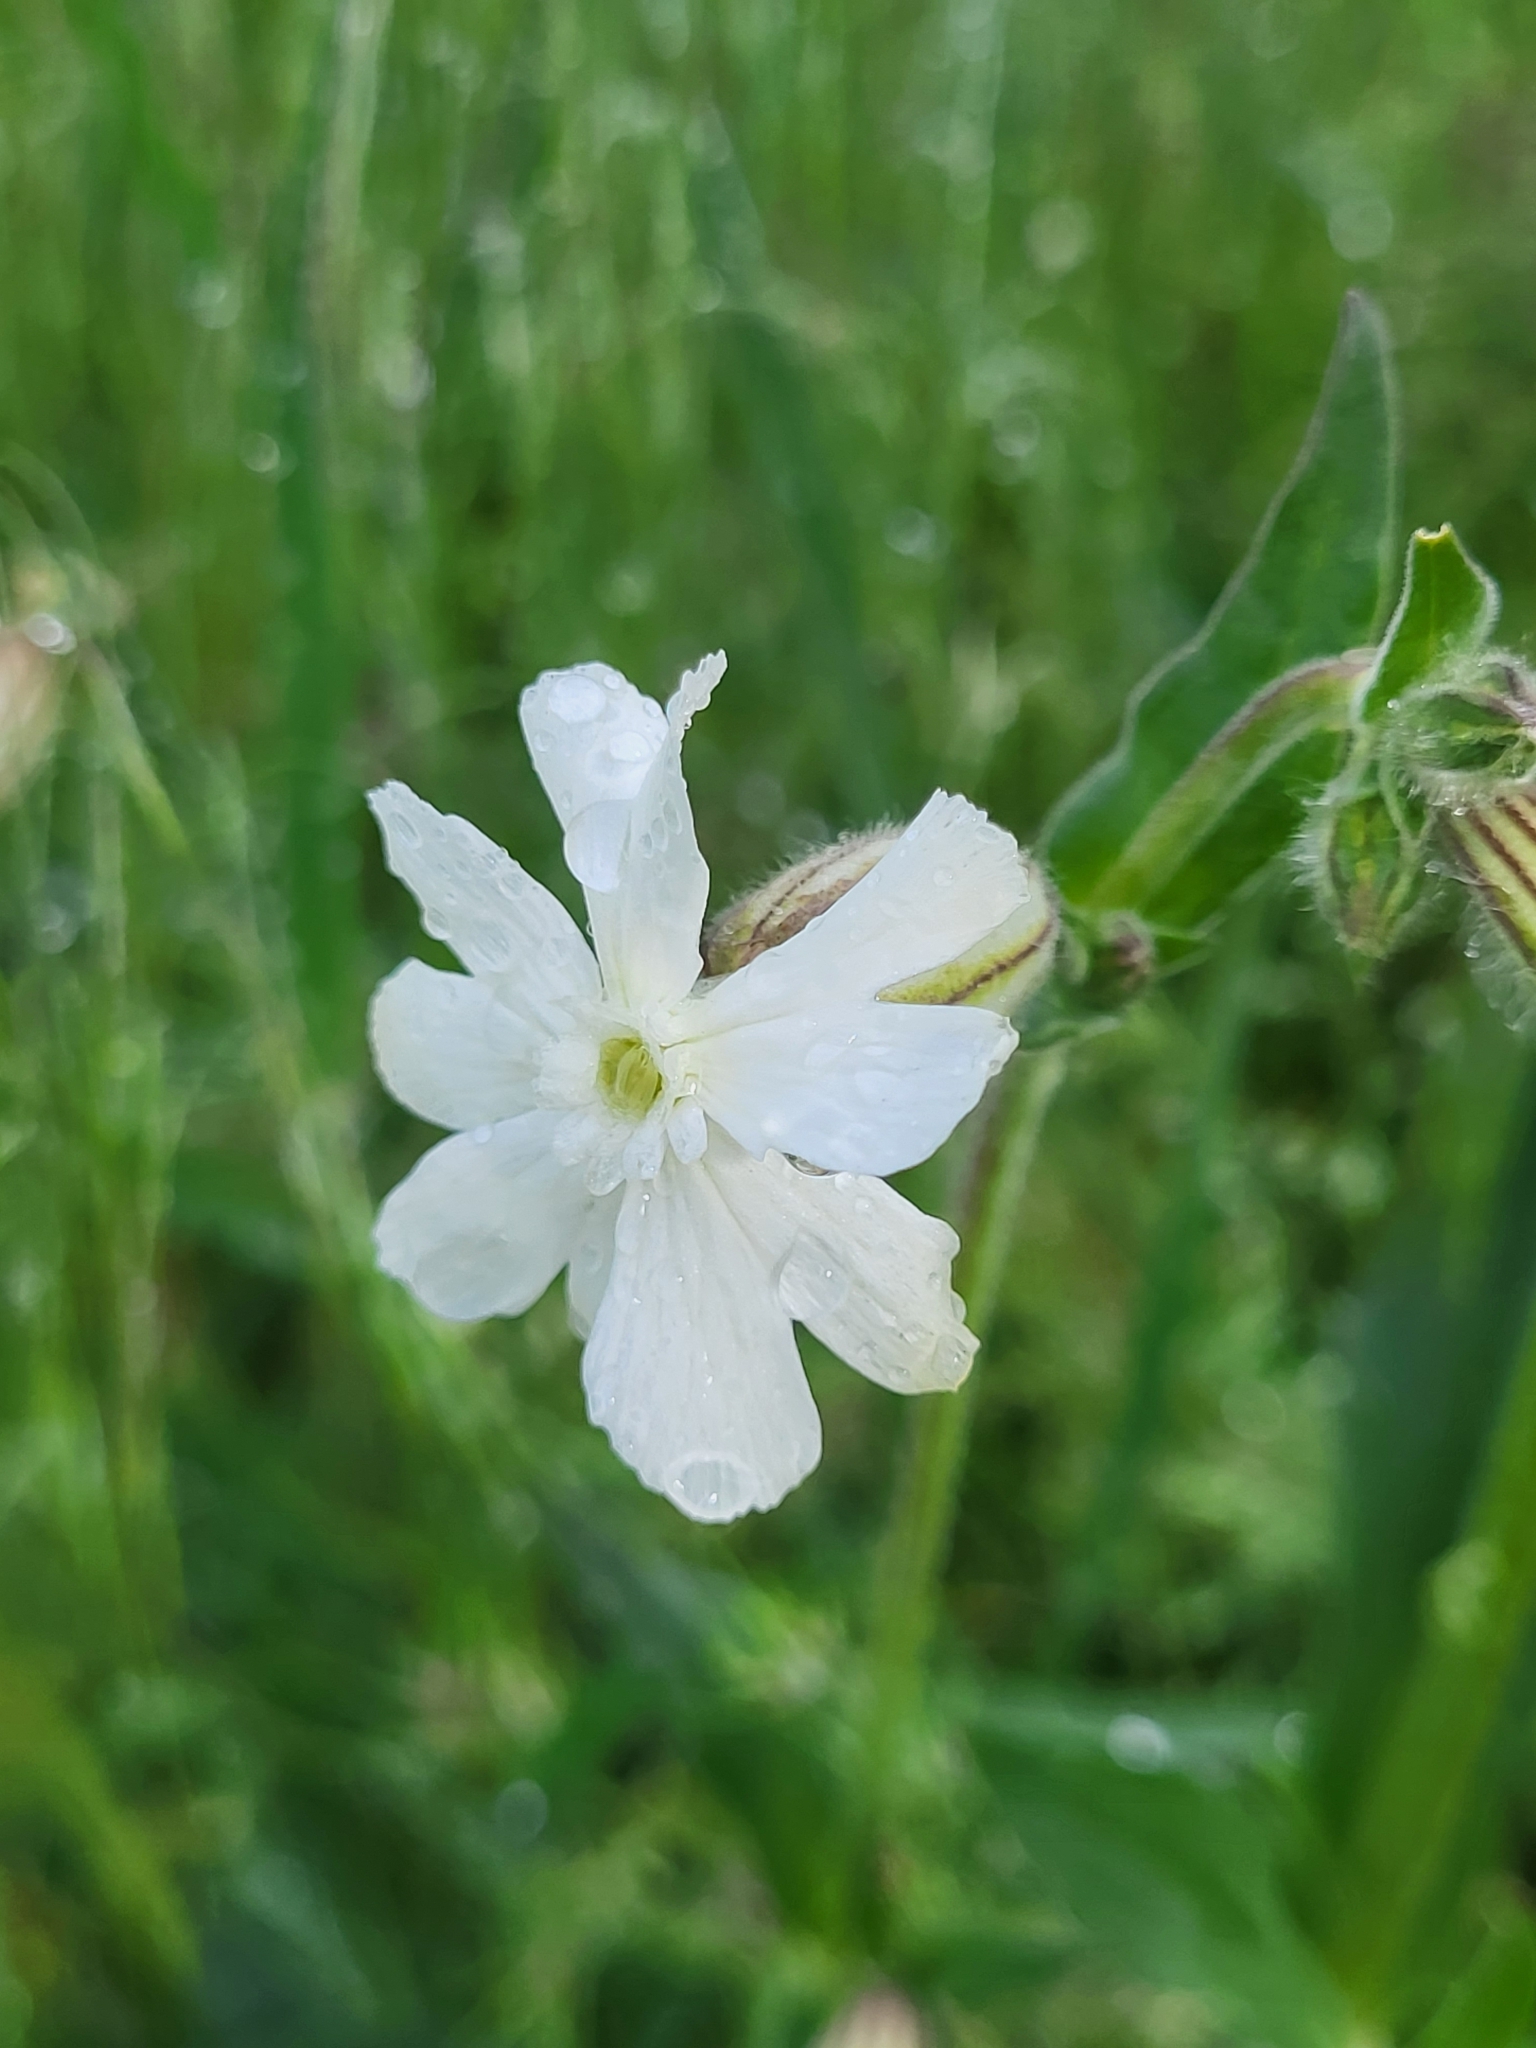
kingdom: Plantae
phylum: Tracheophyta
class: Magnoliopsida
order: Caryophyllales
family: Caryophyllaceae
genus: Silene
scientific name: Silene latifolia
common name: White campion
